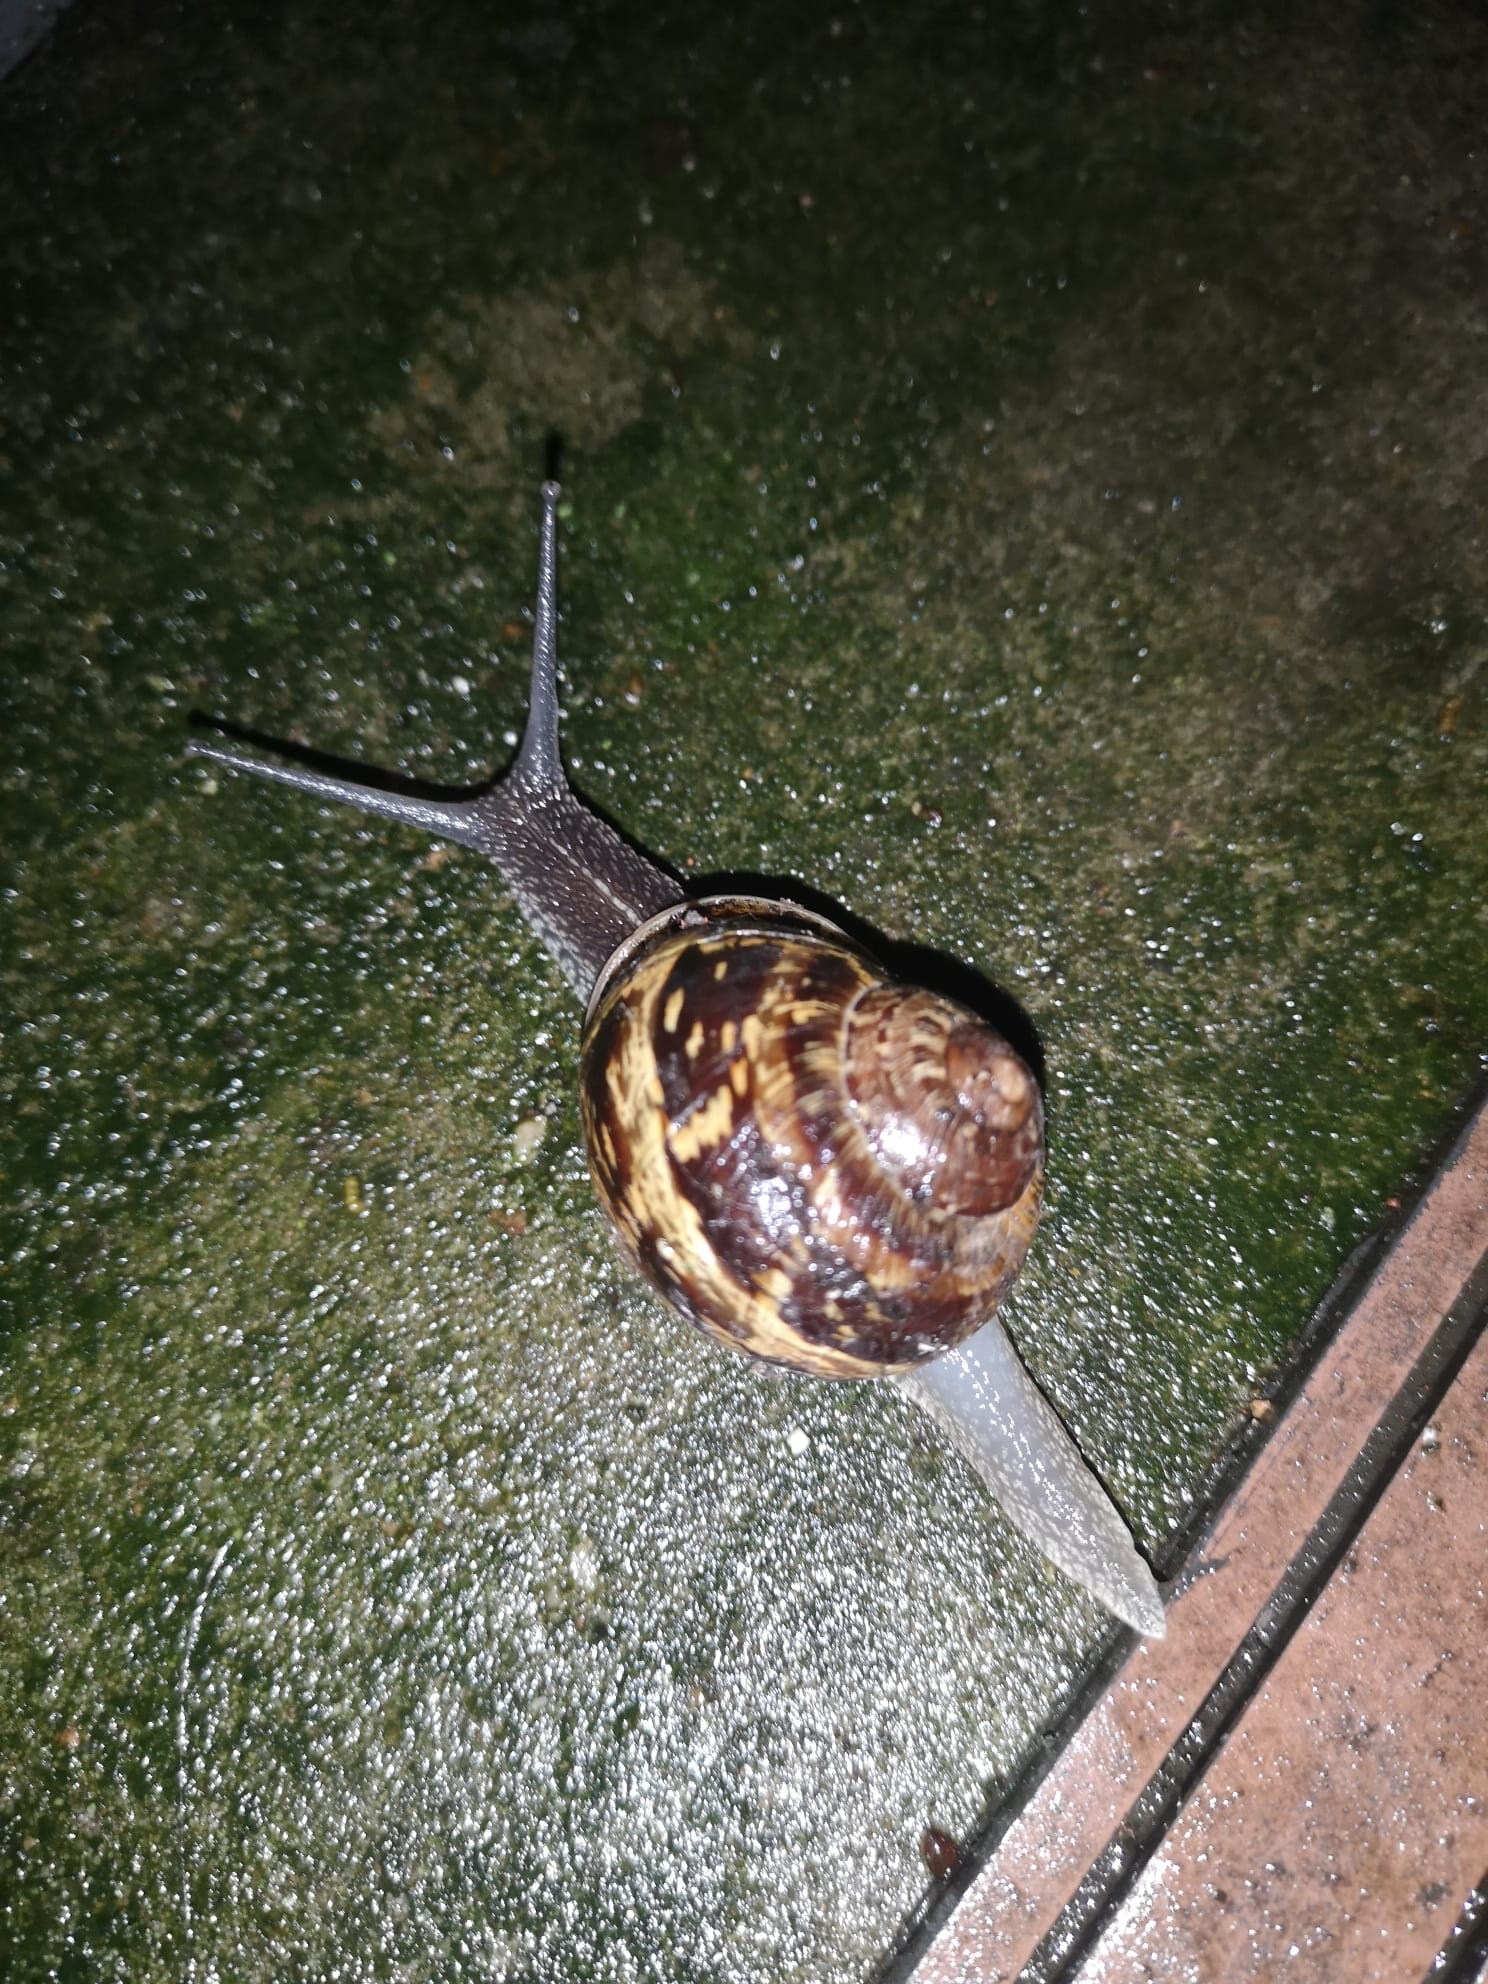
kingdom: Animalia
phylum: Mollusca
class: Gastropoda
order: Stylommatophora
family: Helicidae
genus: Cornu
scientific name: Cornu aspersum
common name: Brown garden snail
